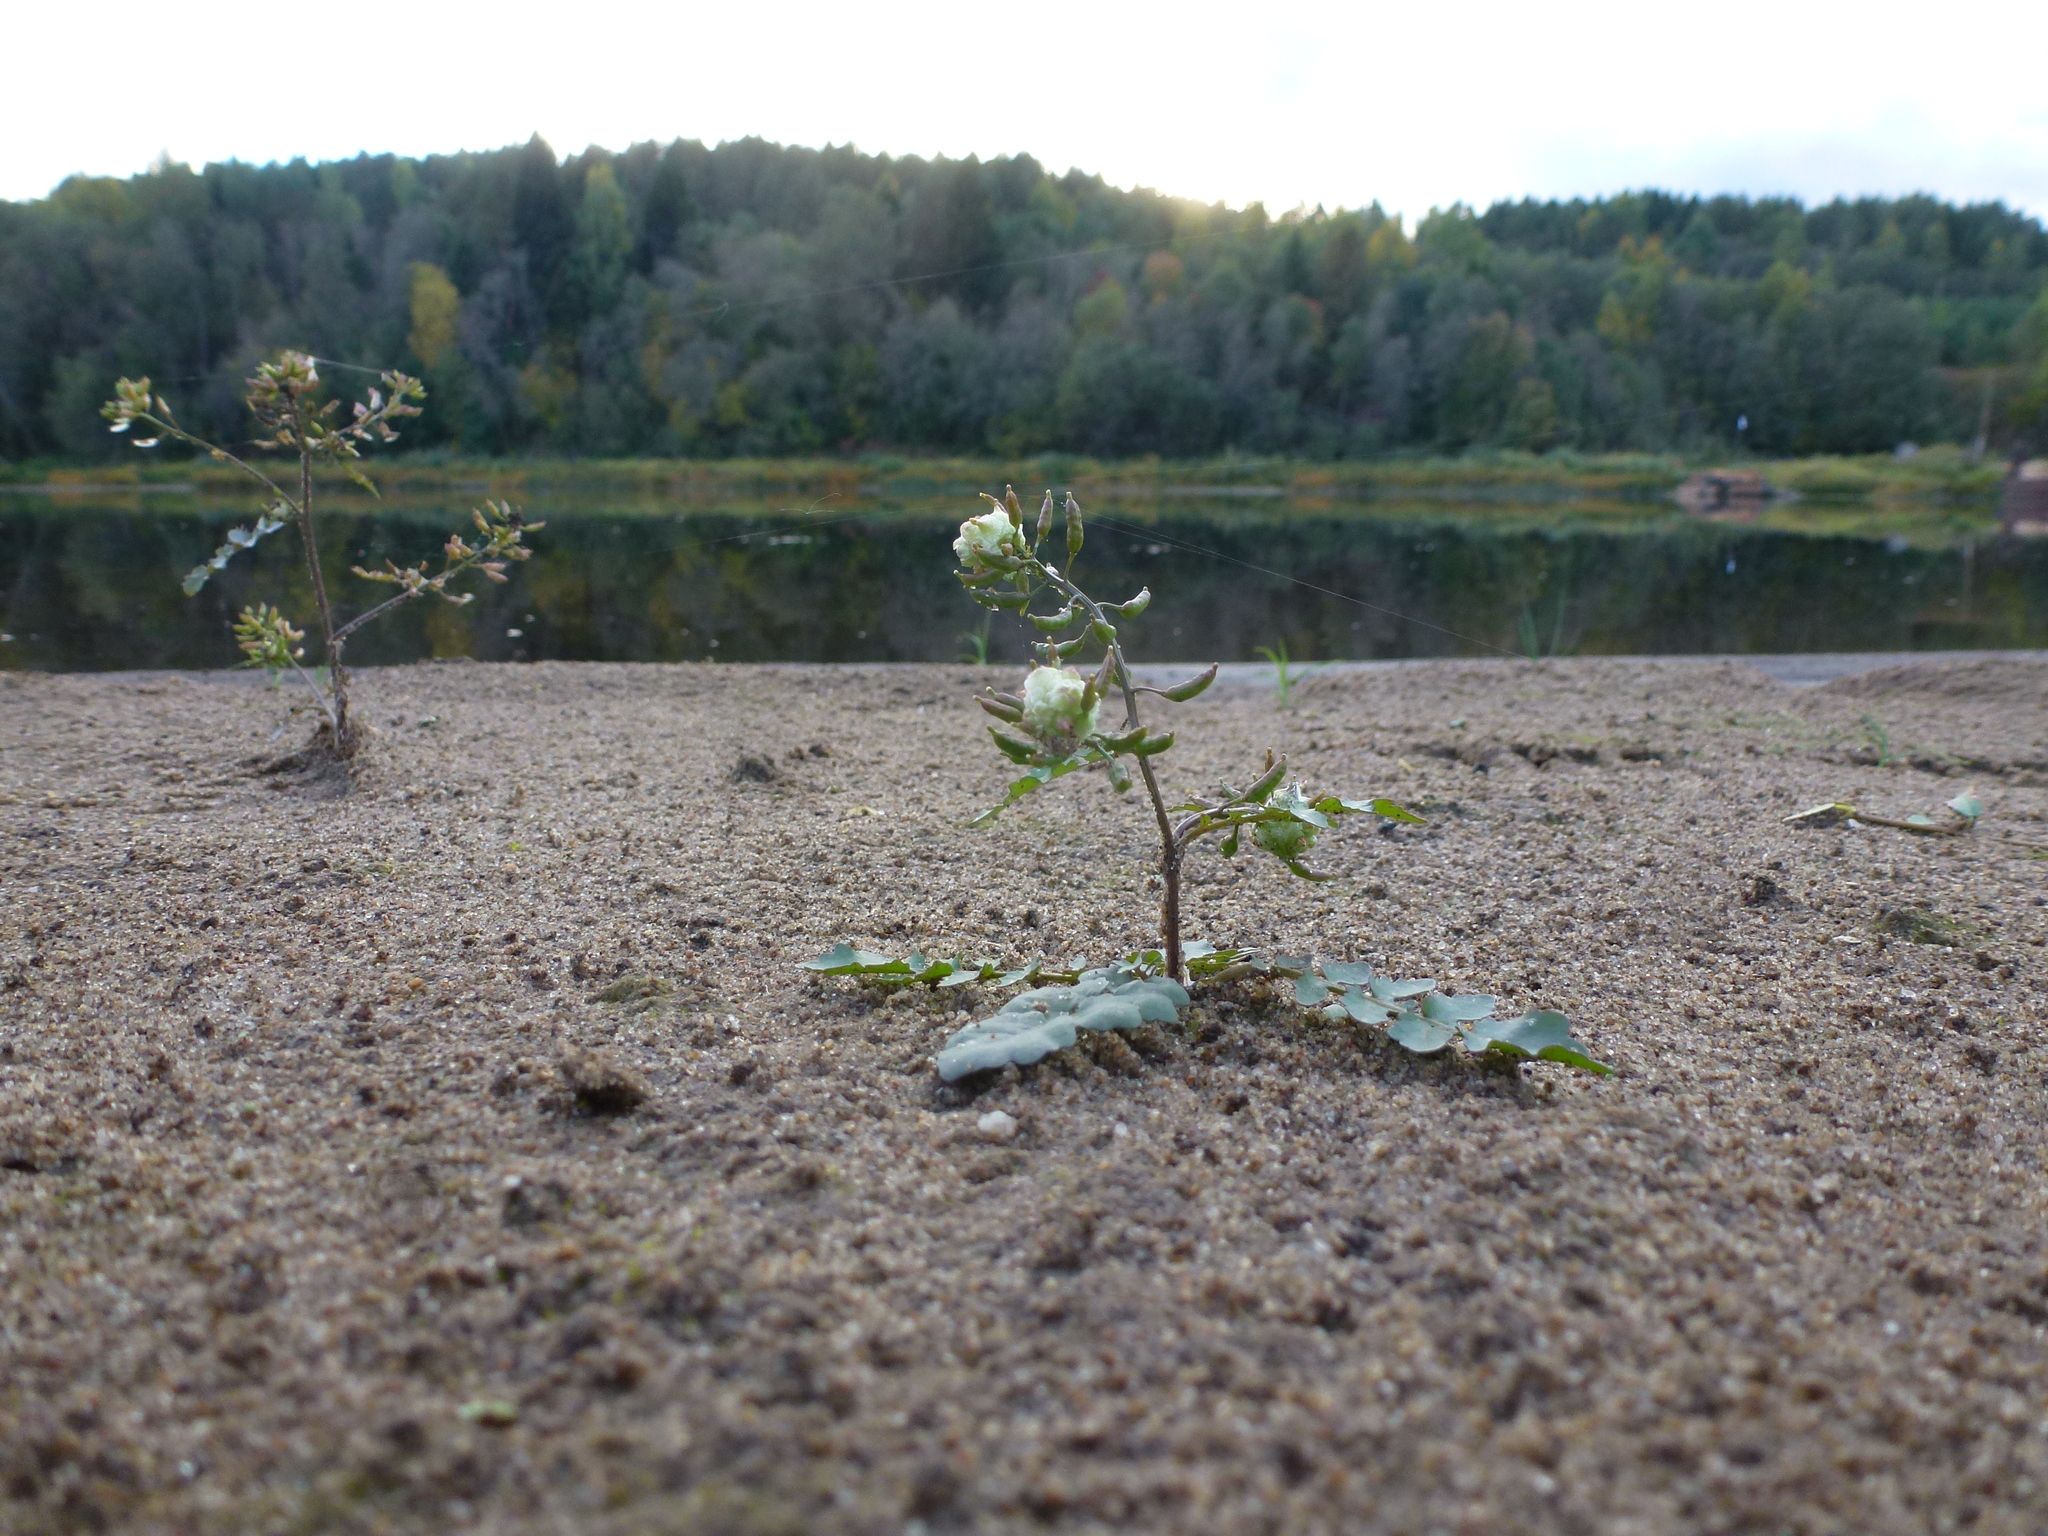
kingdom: Plantae
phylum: Tracheophyta
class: Magnoliopsida
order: Brassicales
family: Brassicaceae
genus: Rorippa
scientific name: Rorippa palustris
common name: Marsh yellow-cress
